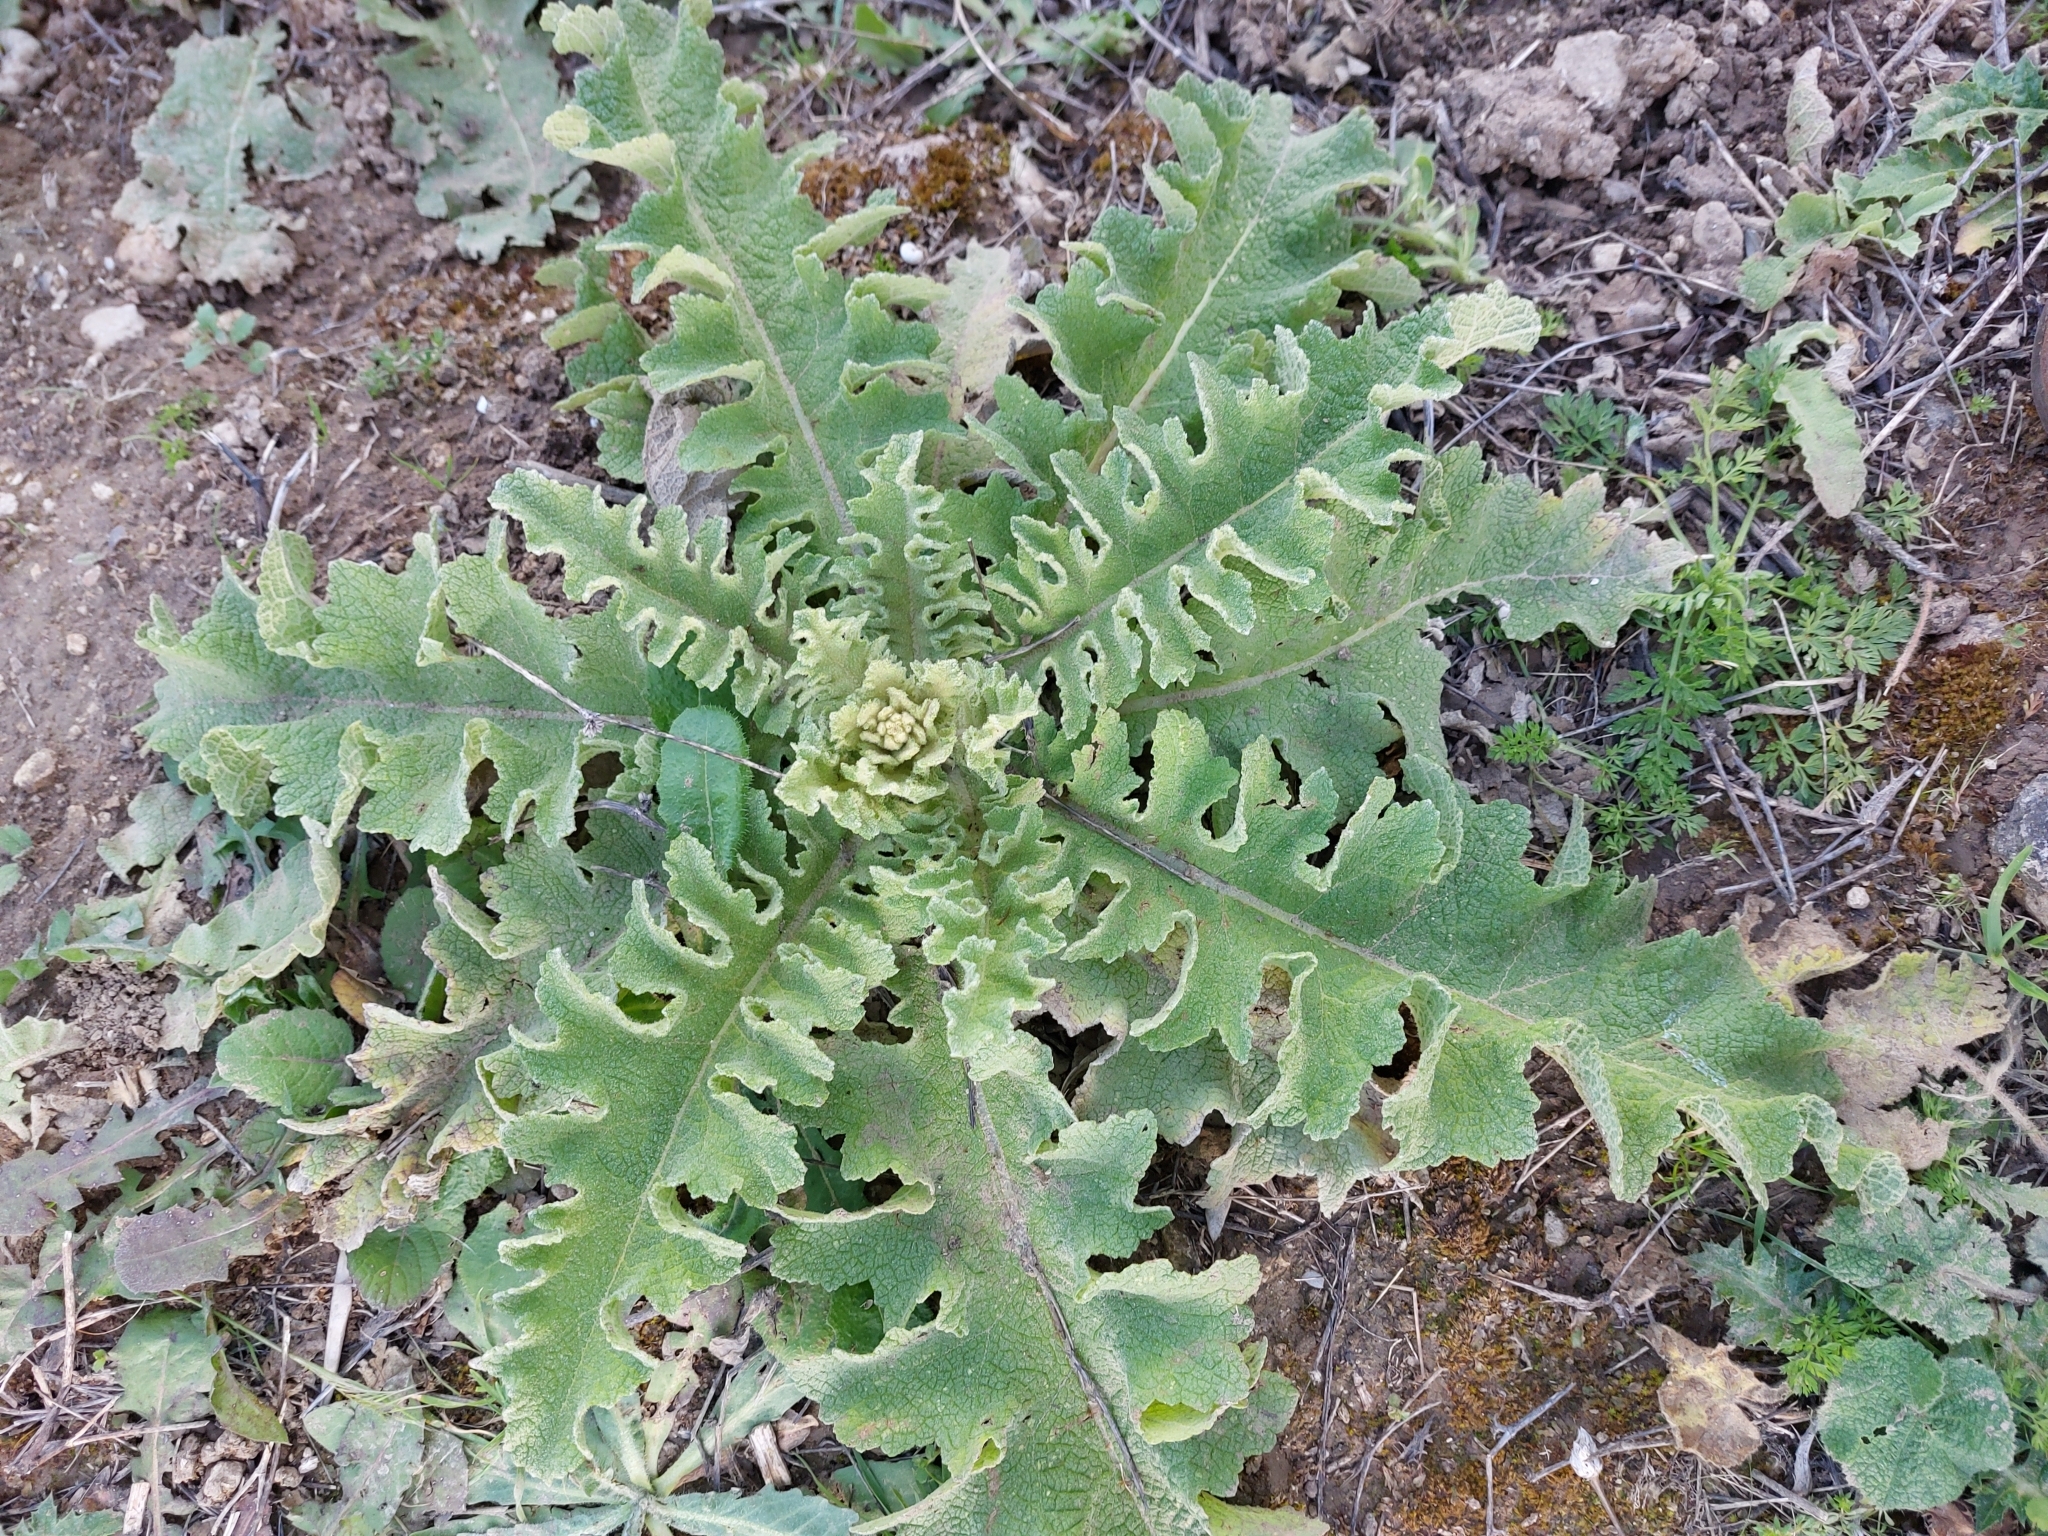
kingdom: Plantae
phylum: Tracheophyta
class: Magnoliopsida
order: Lamiales
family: Scrophulariaceae
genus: Verbascum
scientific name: Verbascum sinuatum
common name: Wavyleaf mullein
